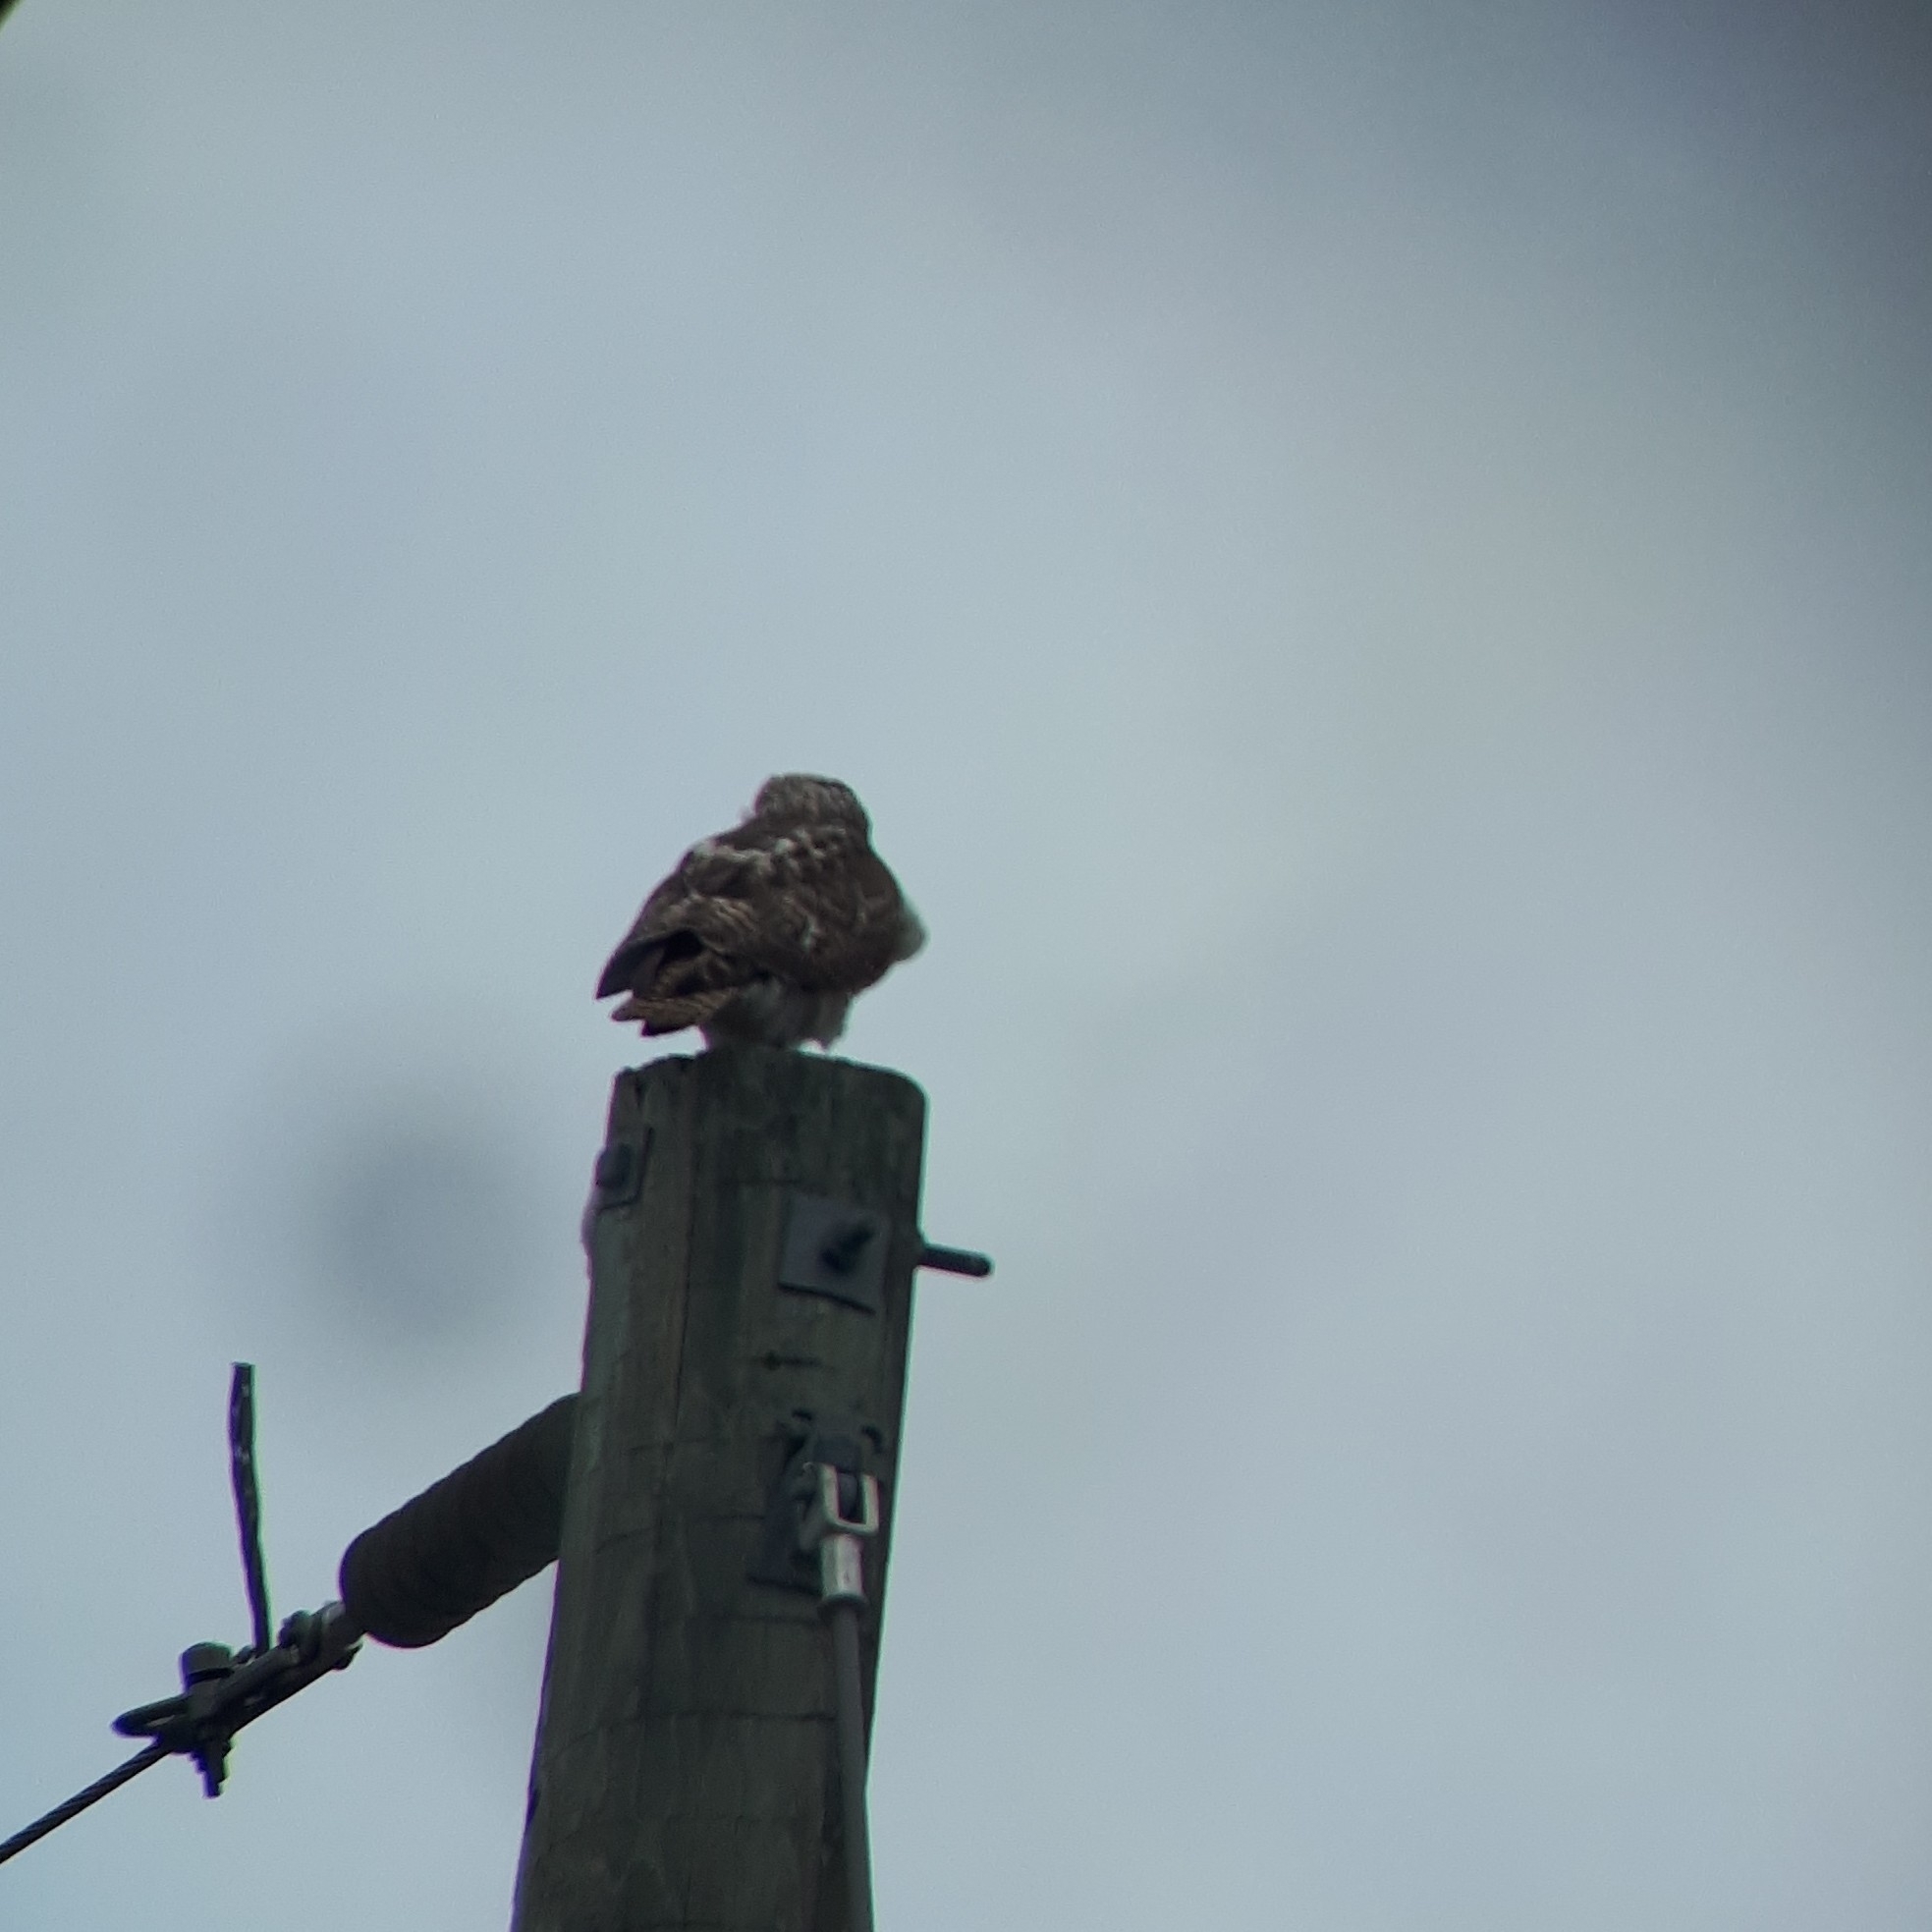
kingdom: Animalia
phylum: Chordata
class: Aves
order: Accipitriformes
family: Accipitridae
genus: Buteo
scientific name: Buteo jamaicensis
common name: Red-tailed hawk
